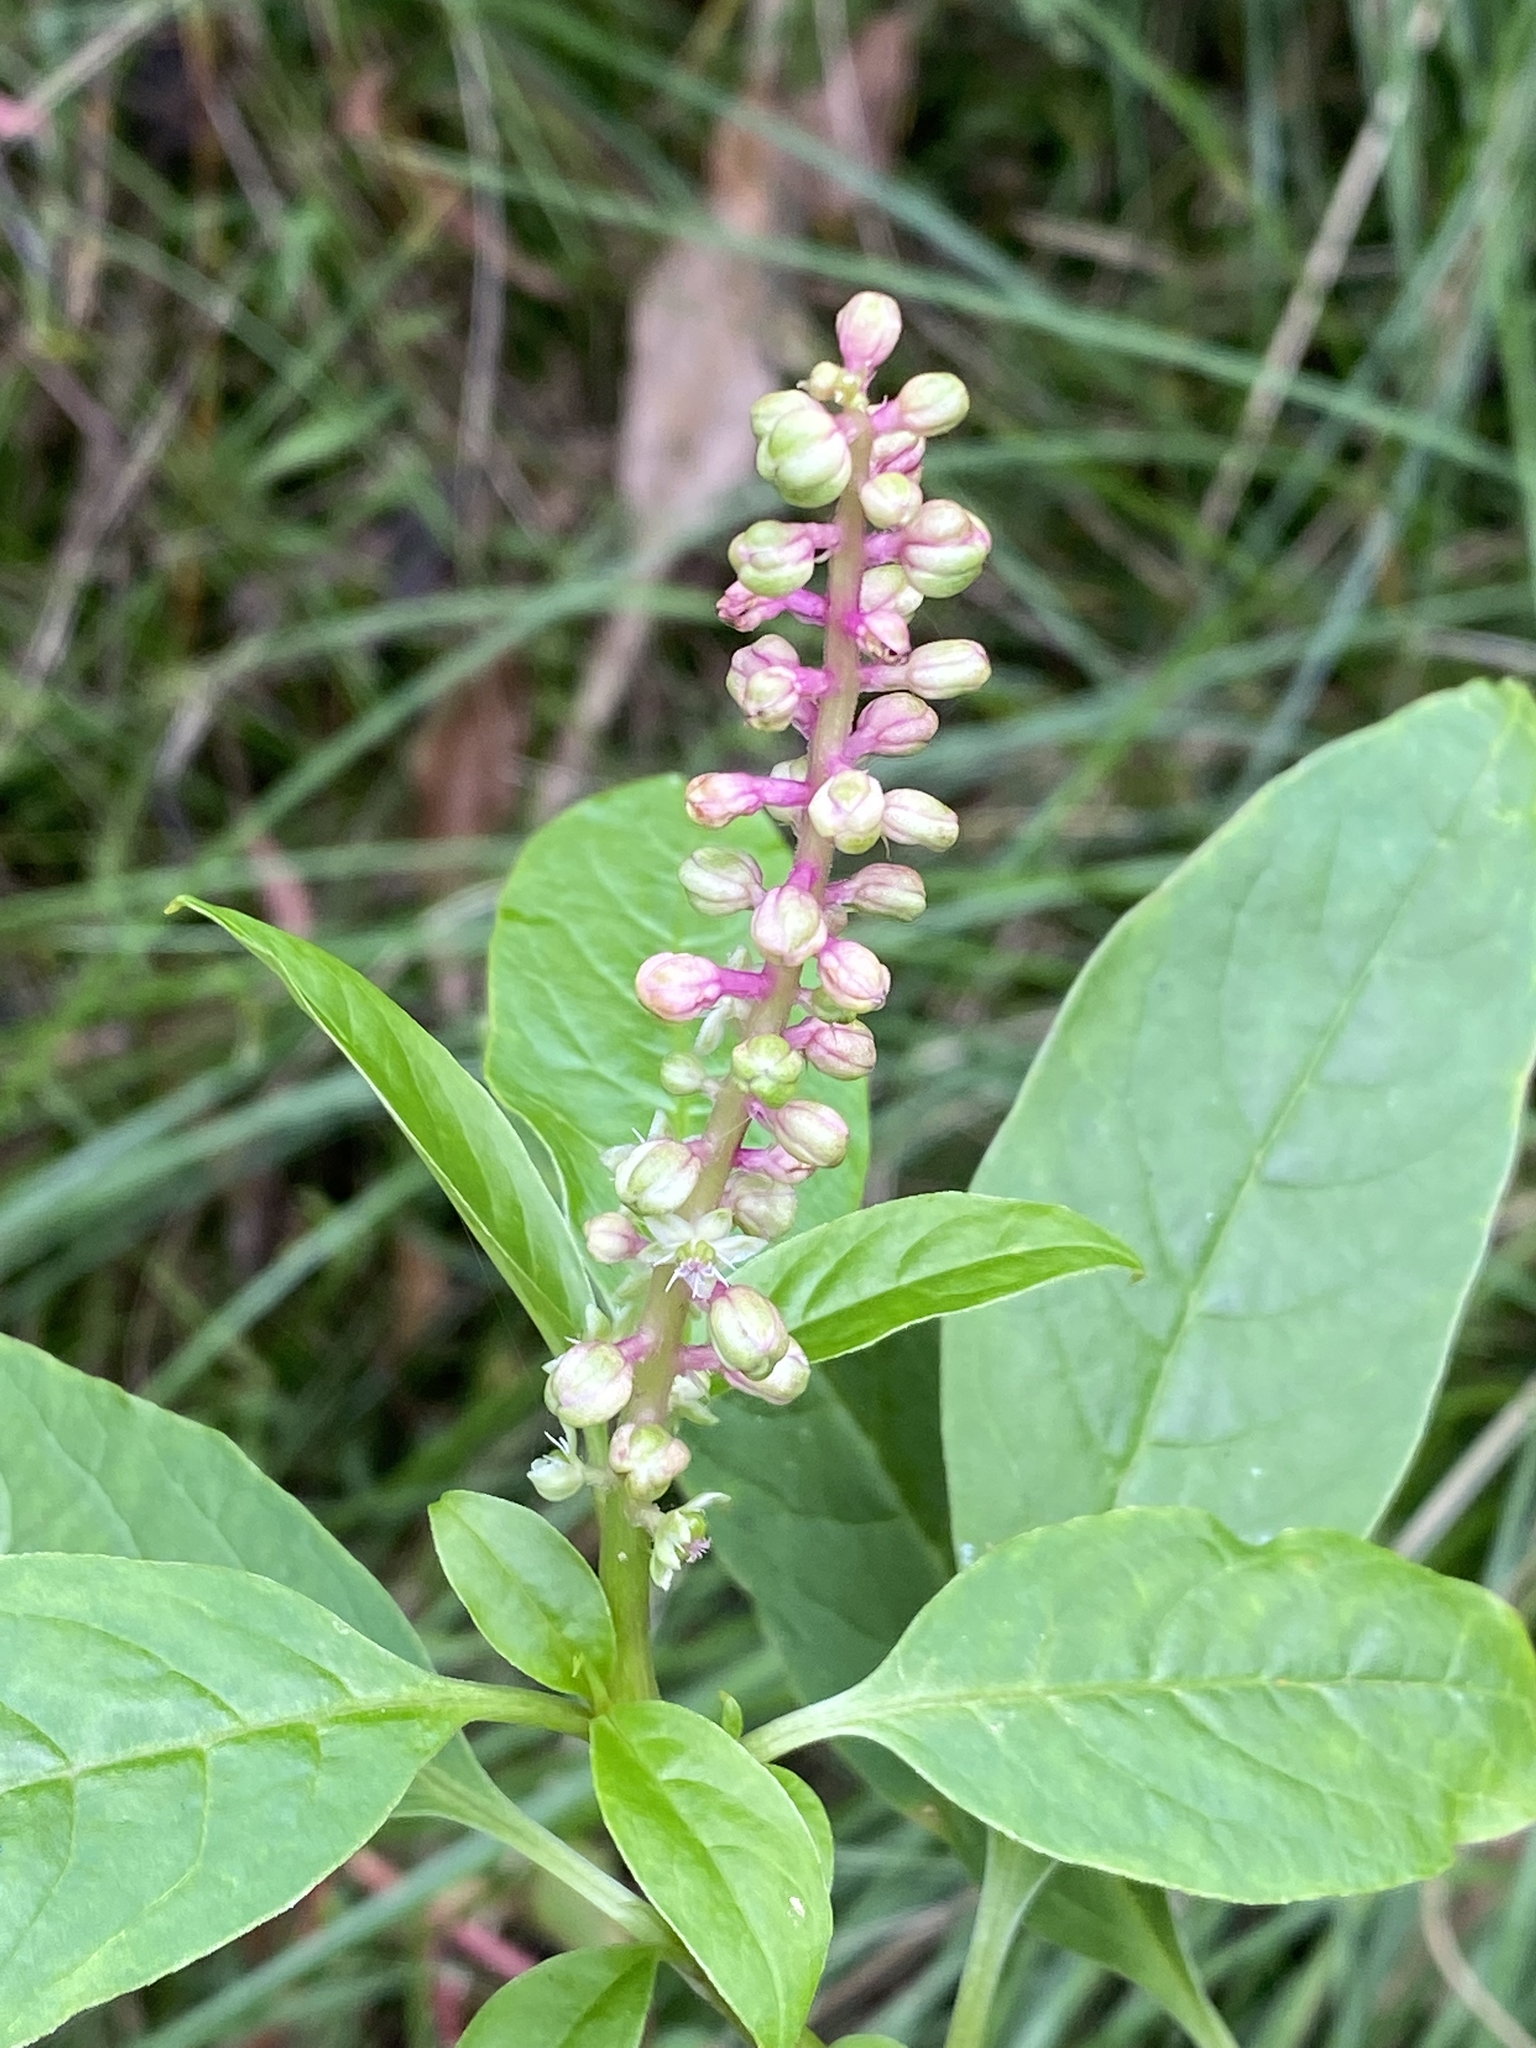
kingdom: Plantae
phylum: Tracheophyta
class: Magnoliopsida
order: Caryophyllales
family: Phytolaccaceae
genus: Phytolacca
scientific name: Phytolacca icosandra
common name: Button pokeweed
